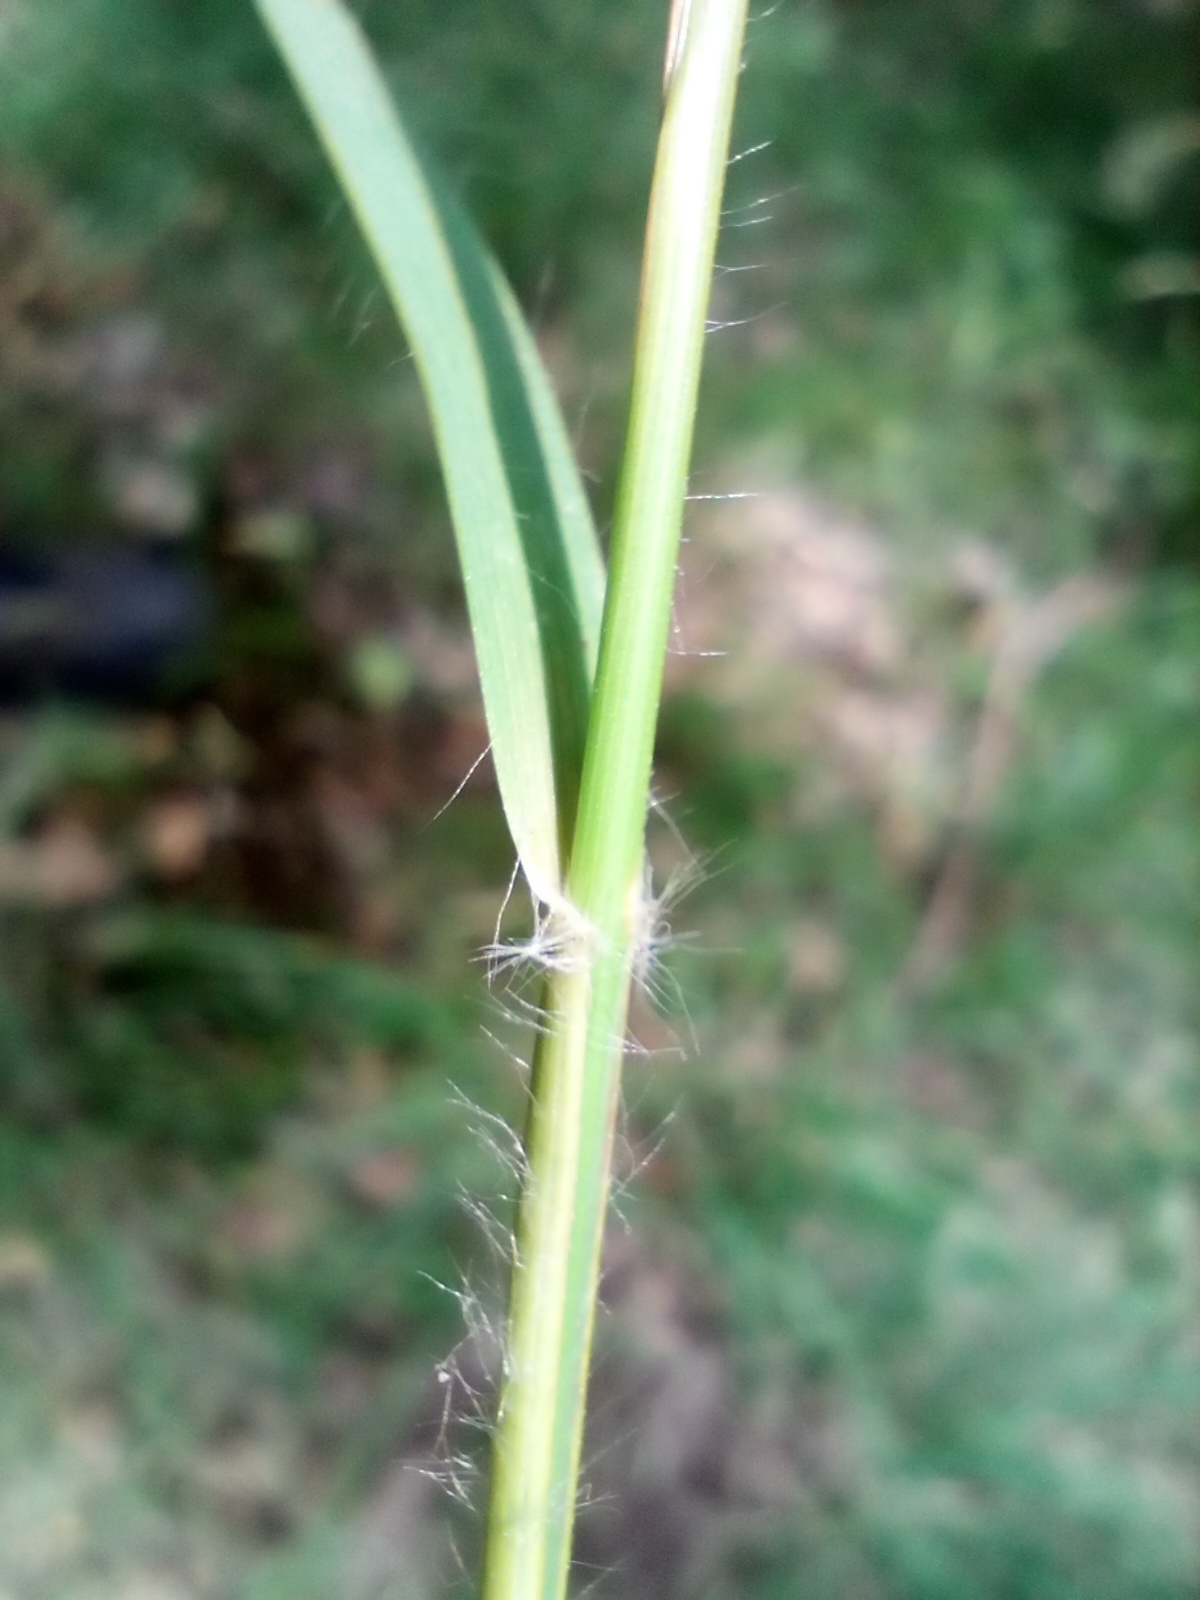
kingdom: Plantae
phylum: Tracheophyta
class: Liliopsida
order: Poales
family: Poaceae
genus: Danthonia
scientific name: Danthonia decumbens
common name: Common heathgrass
